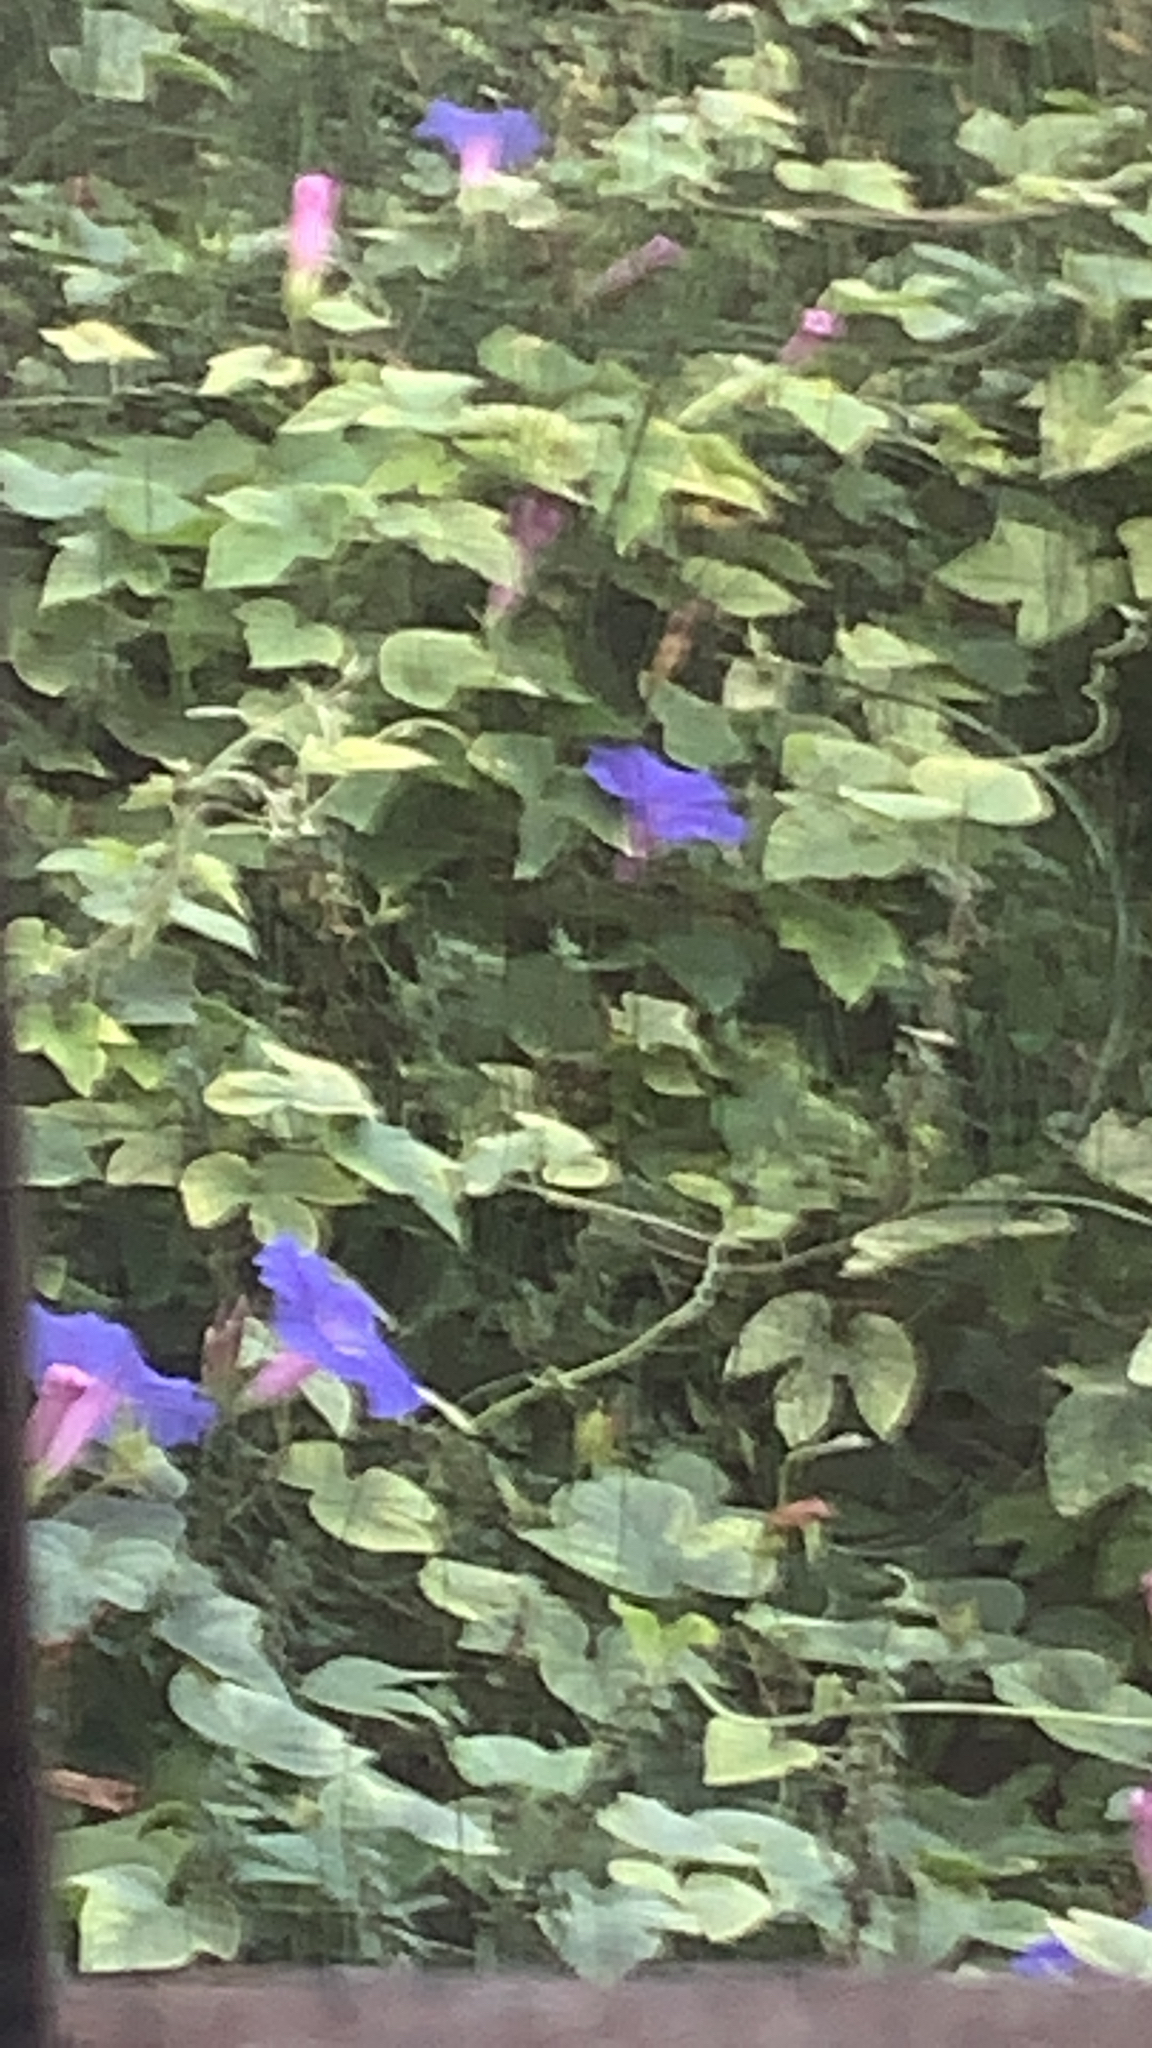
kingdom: Plantae
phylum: Tracheophyta
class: Magnoliopsida
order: Solanales
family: Convolvulaceae
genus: Ipomoea
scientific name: Ipomoea indica
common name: Blue dawnflower
